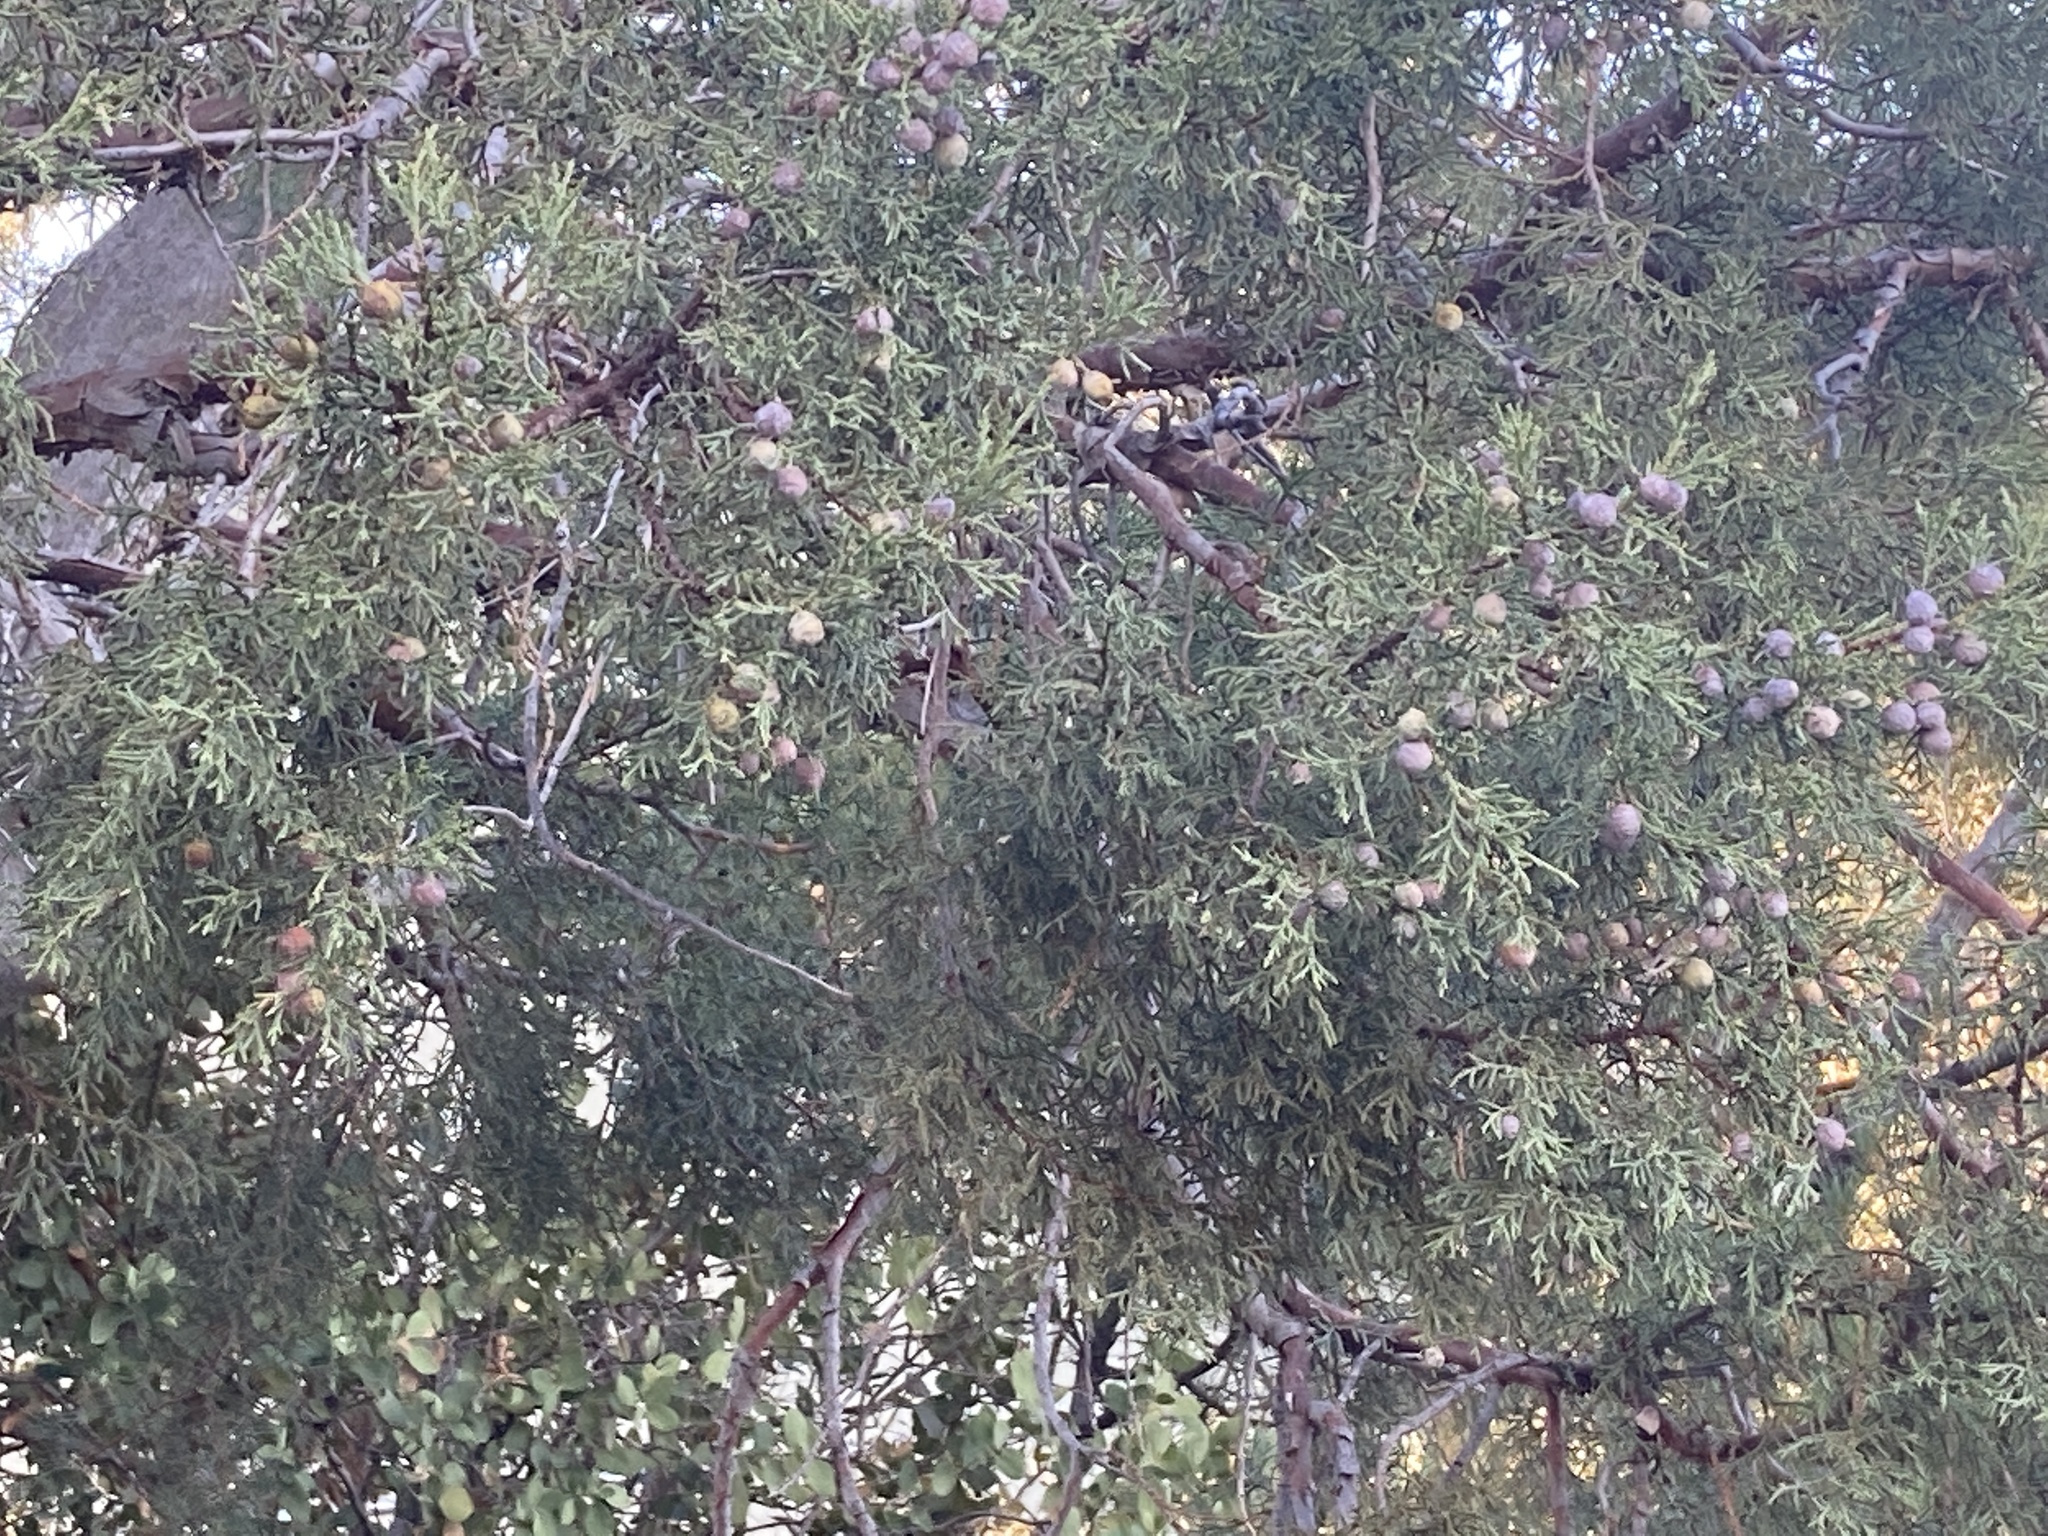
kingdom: Plantae
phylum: Tracheophyta
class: Pinopsida
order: Pinales
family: Cupressaceae
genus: Juniperus
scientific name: Juniperus deppeana
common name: Alligator juniper
